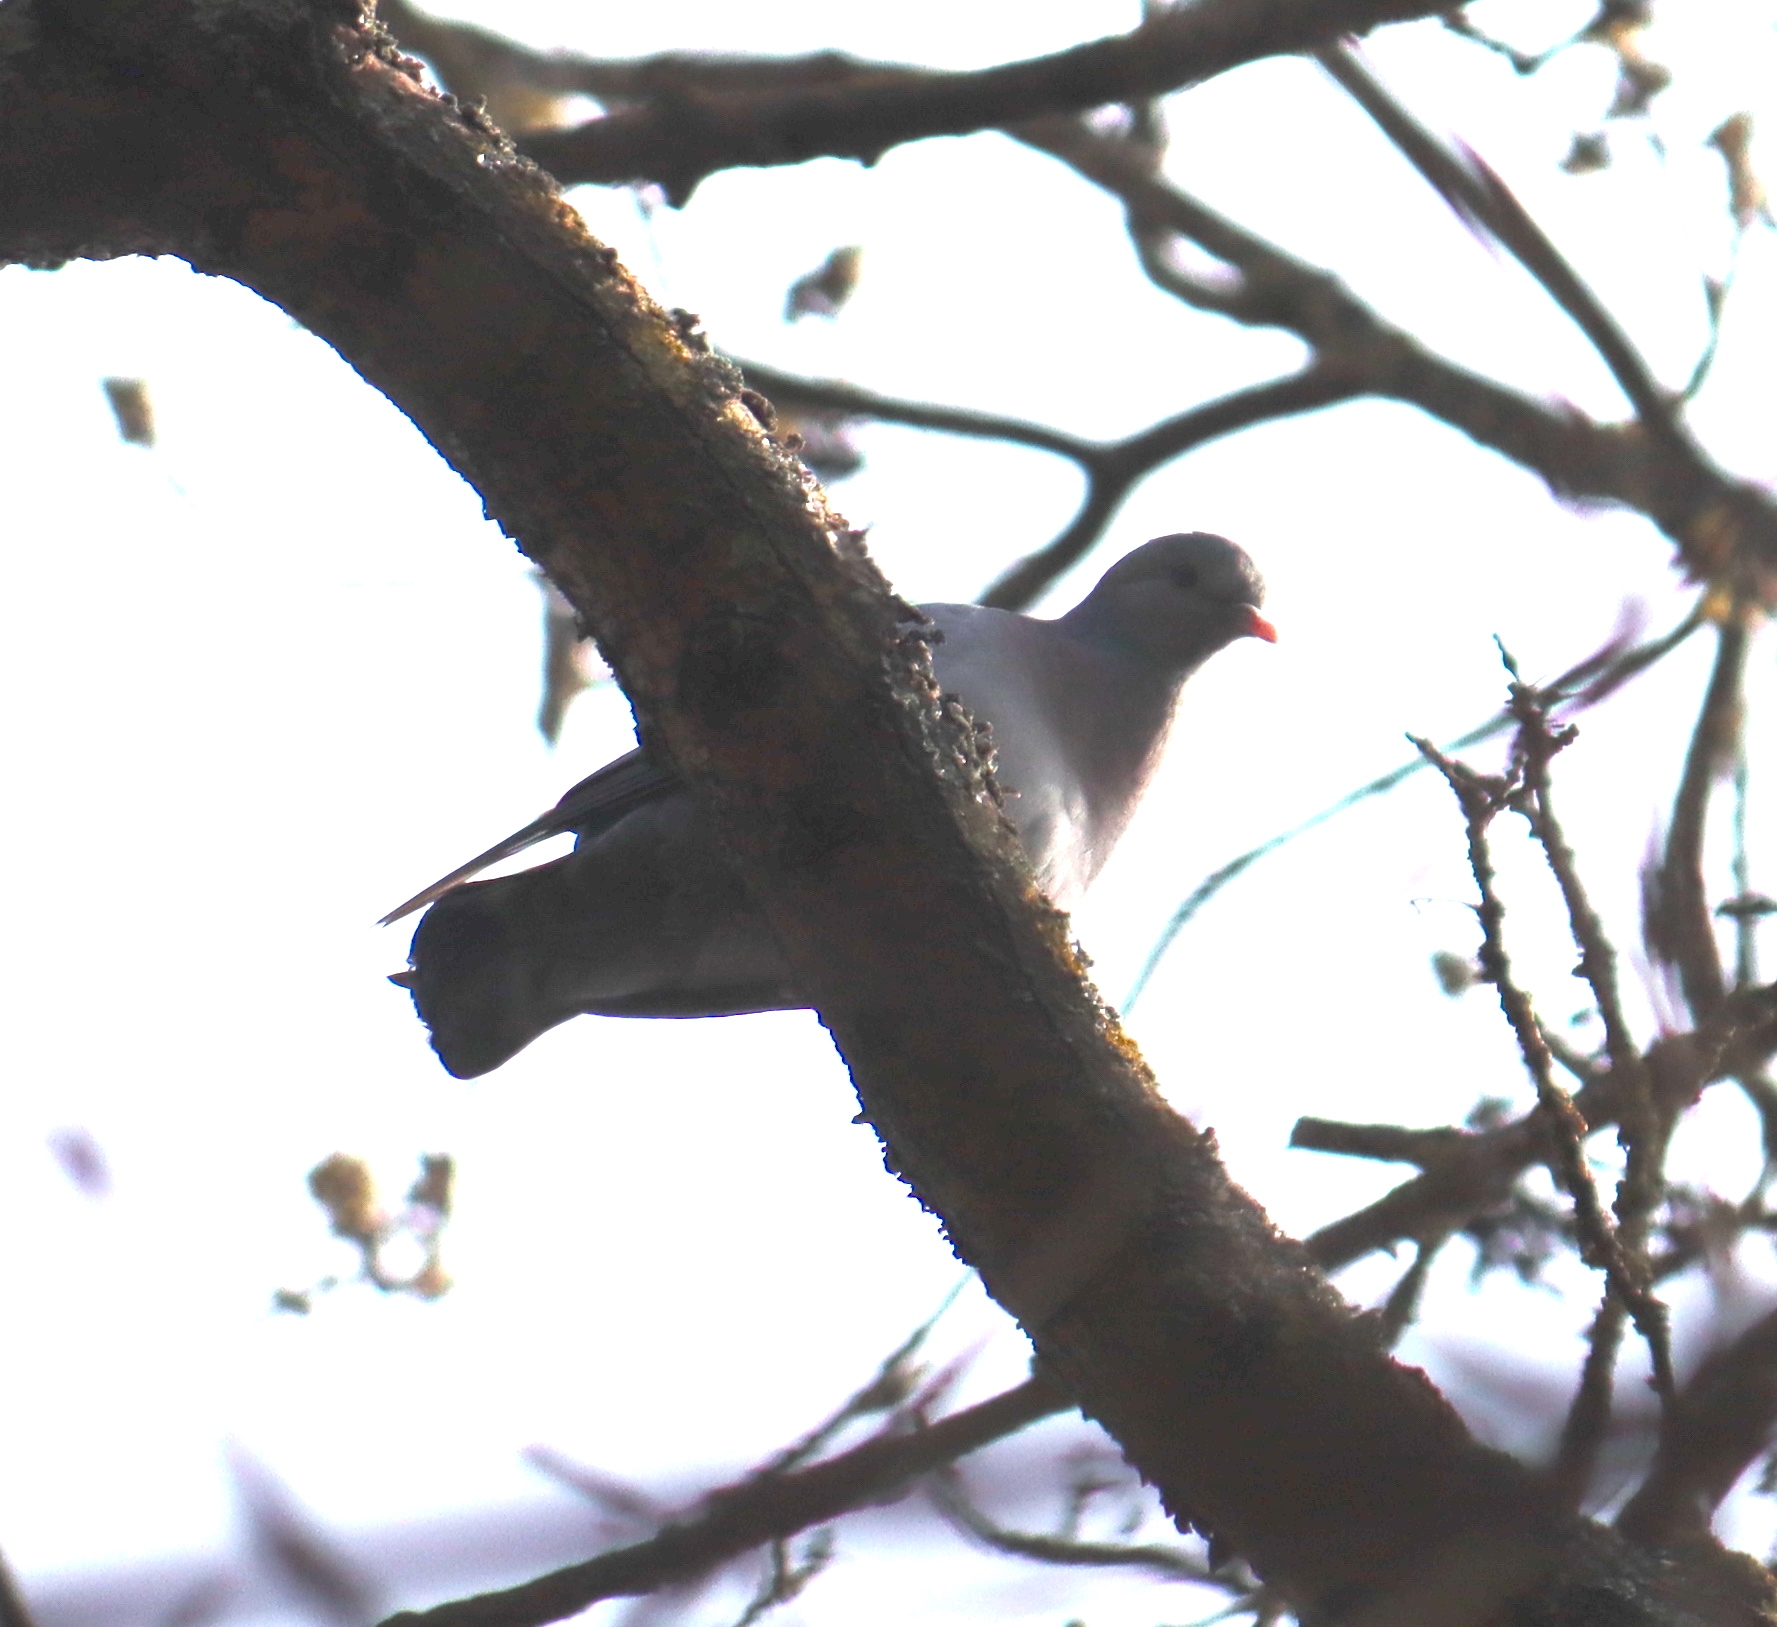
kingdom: Animalia
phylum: Chordata
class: Aves
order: Columbiformes
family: Columbidae
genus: Columba
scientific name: Columba oenas
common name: Stock dove
